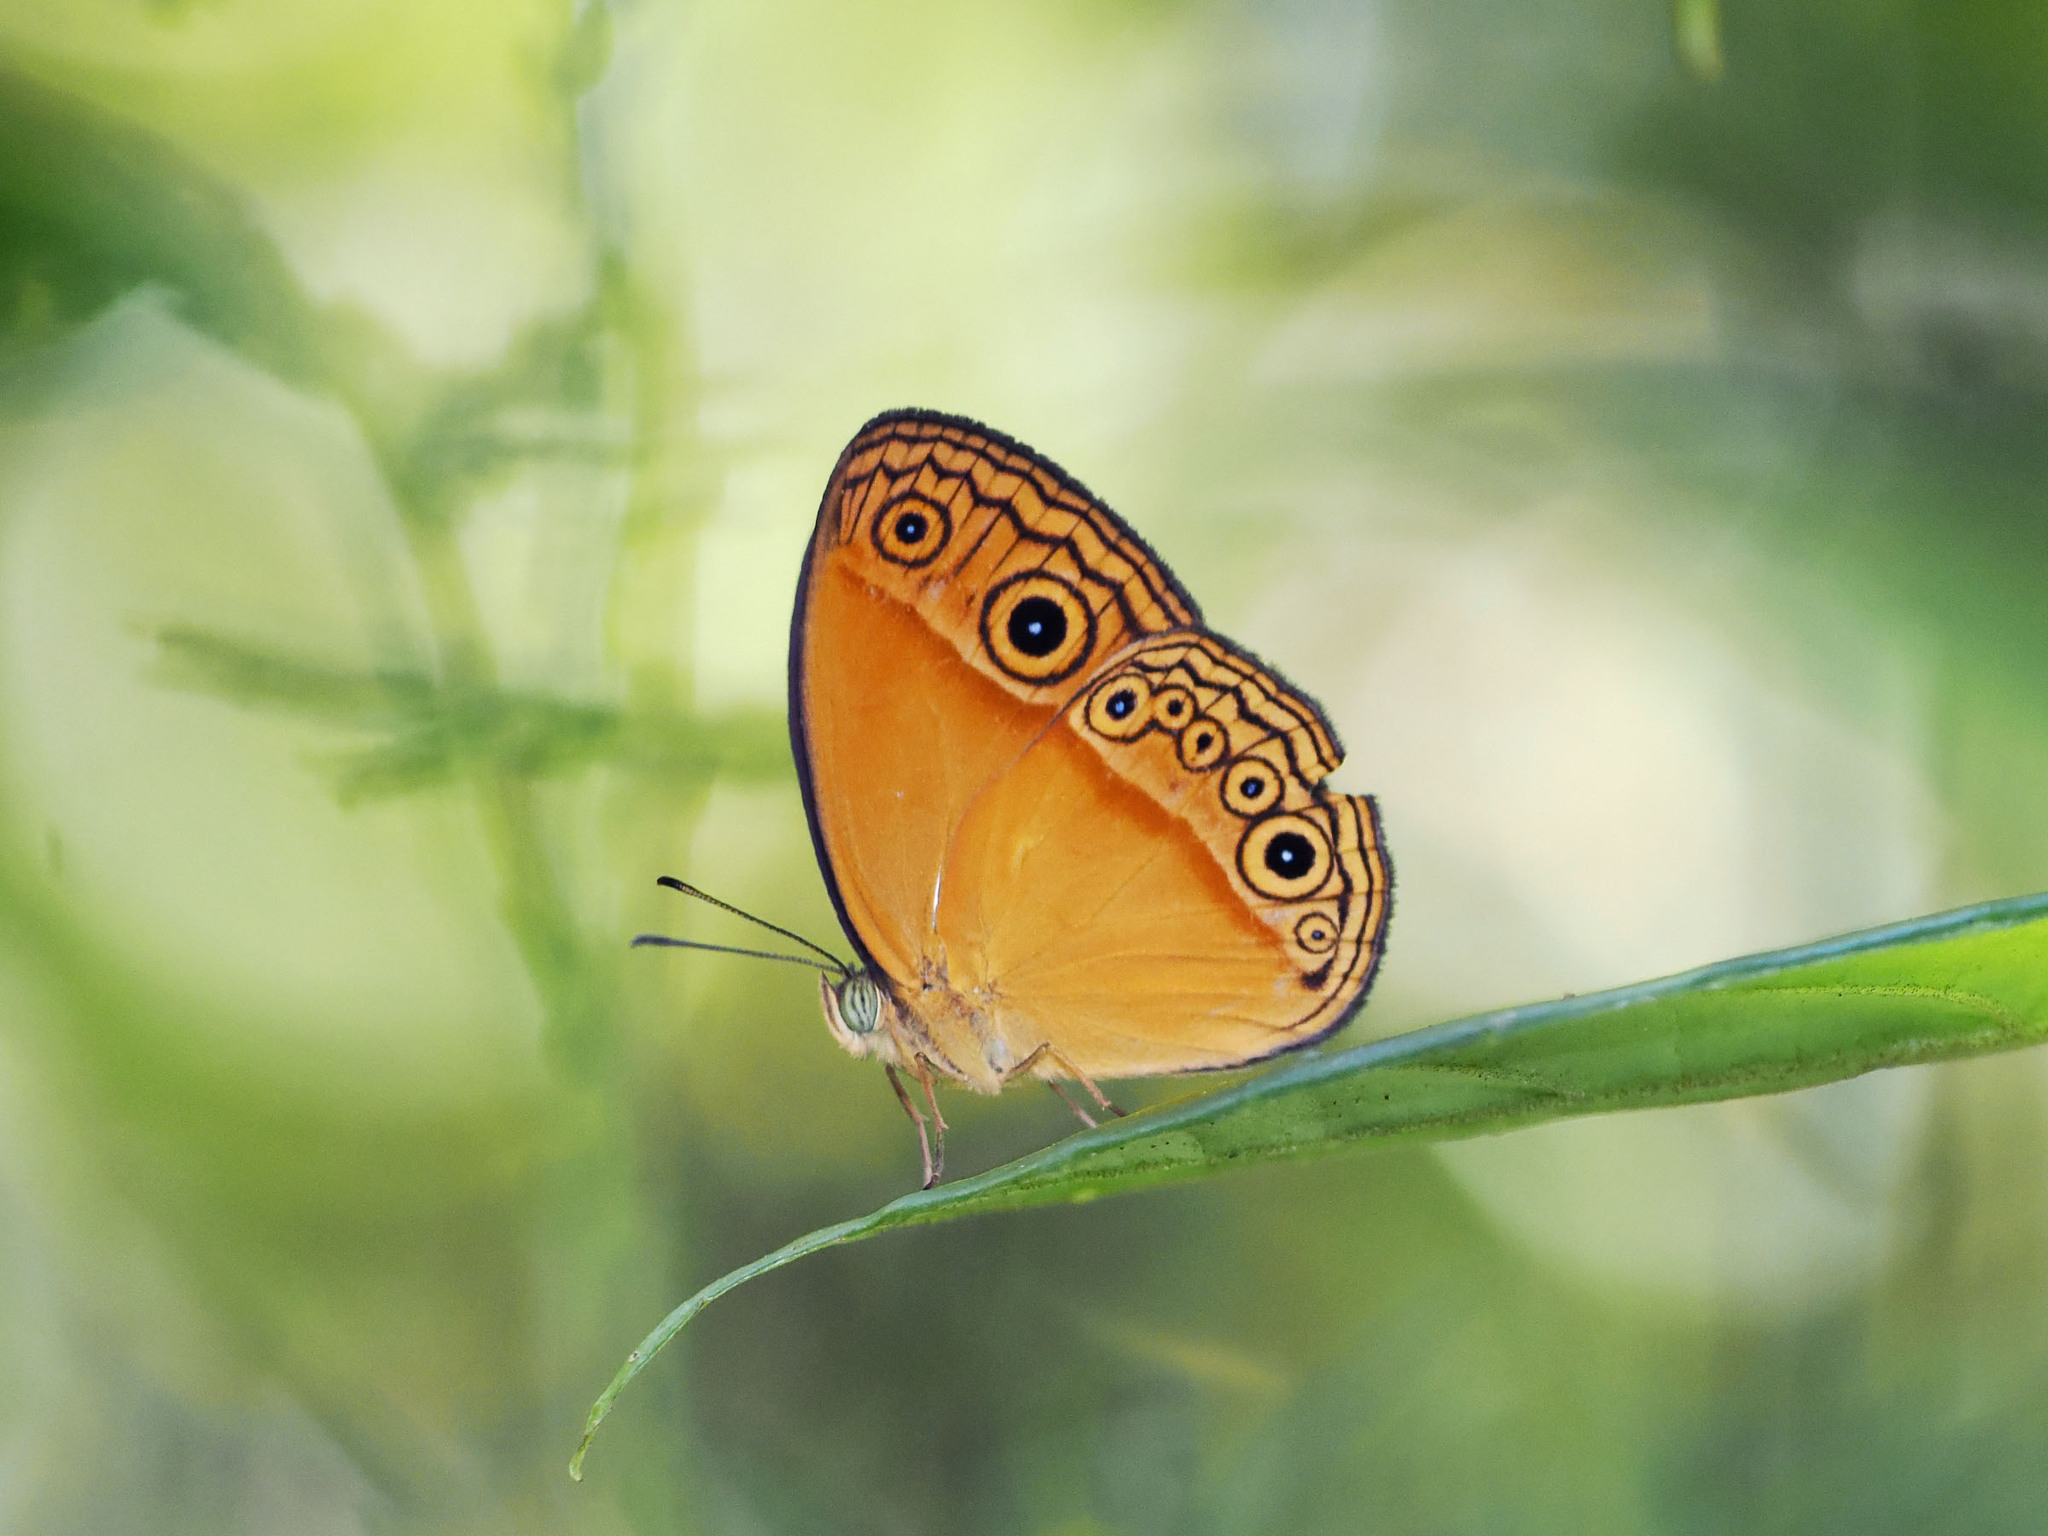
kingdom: Animalia
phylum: Arthropoda
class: Insecta
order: Lepidoptera
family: Nymphalidae
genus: Mycalesis
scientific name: Mycalesis phidon
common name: Hewitson's bushbrown
